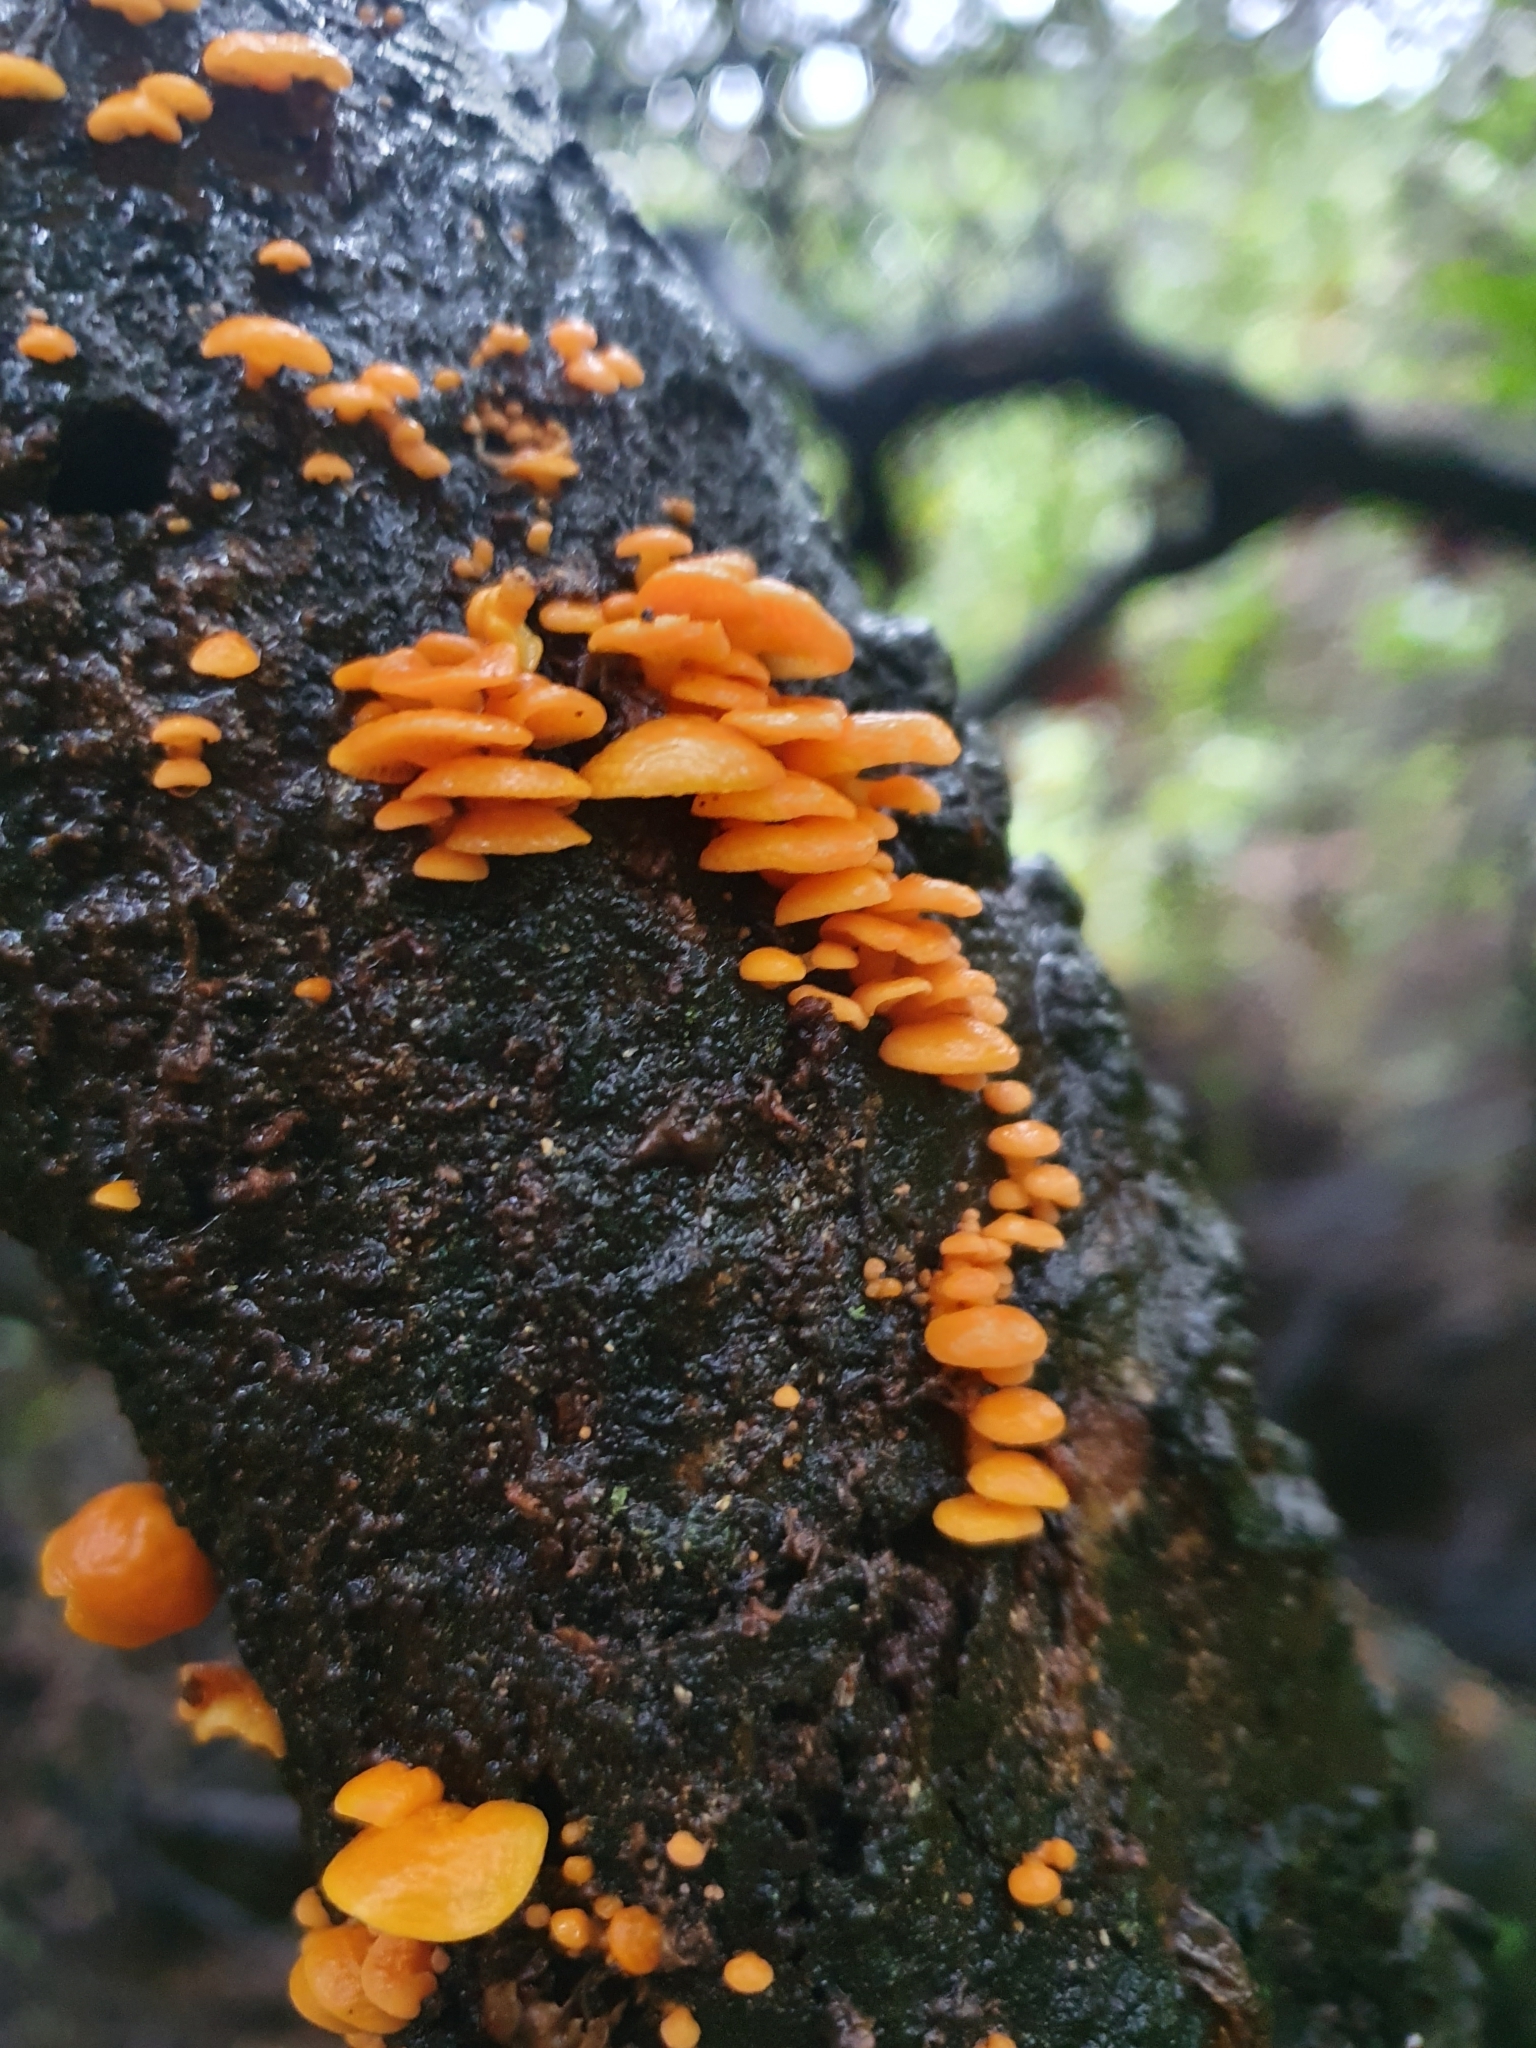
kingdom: Fungi
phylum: Basidiomycota
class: Agaricomycetes
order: Agaricales
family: Mycenaceae
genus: Favolaschia
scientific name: Favolaschia claudopus
